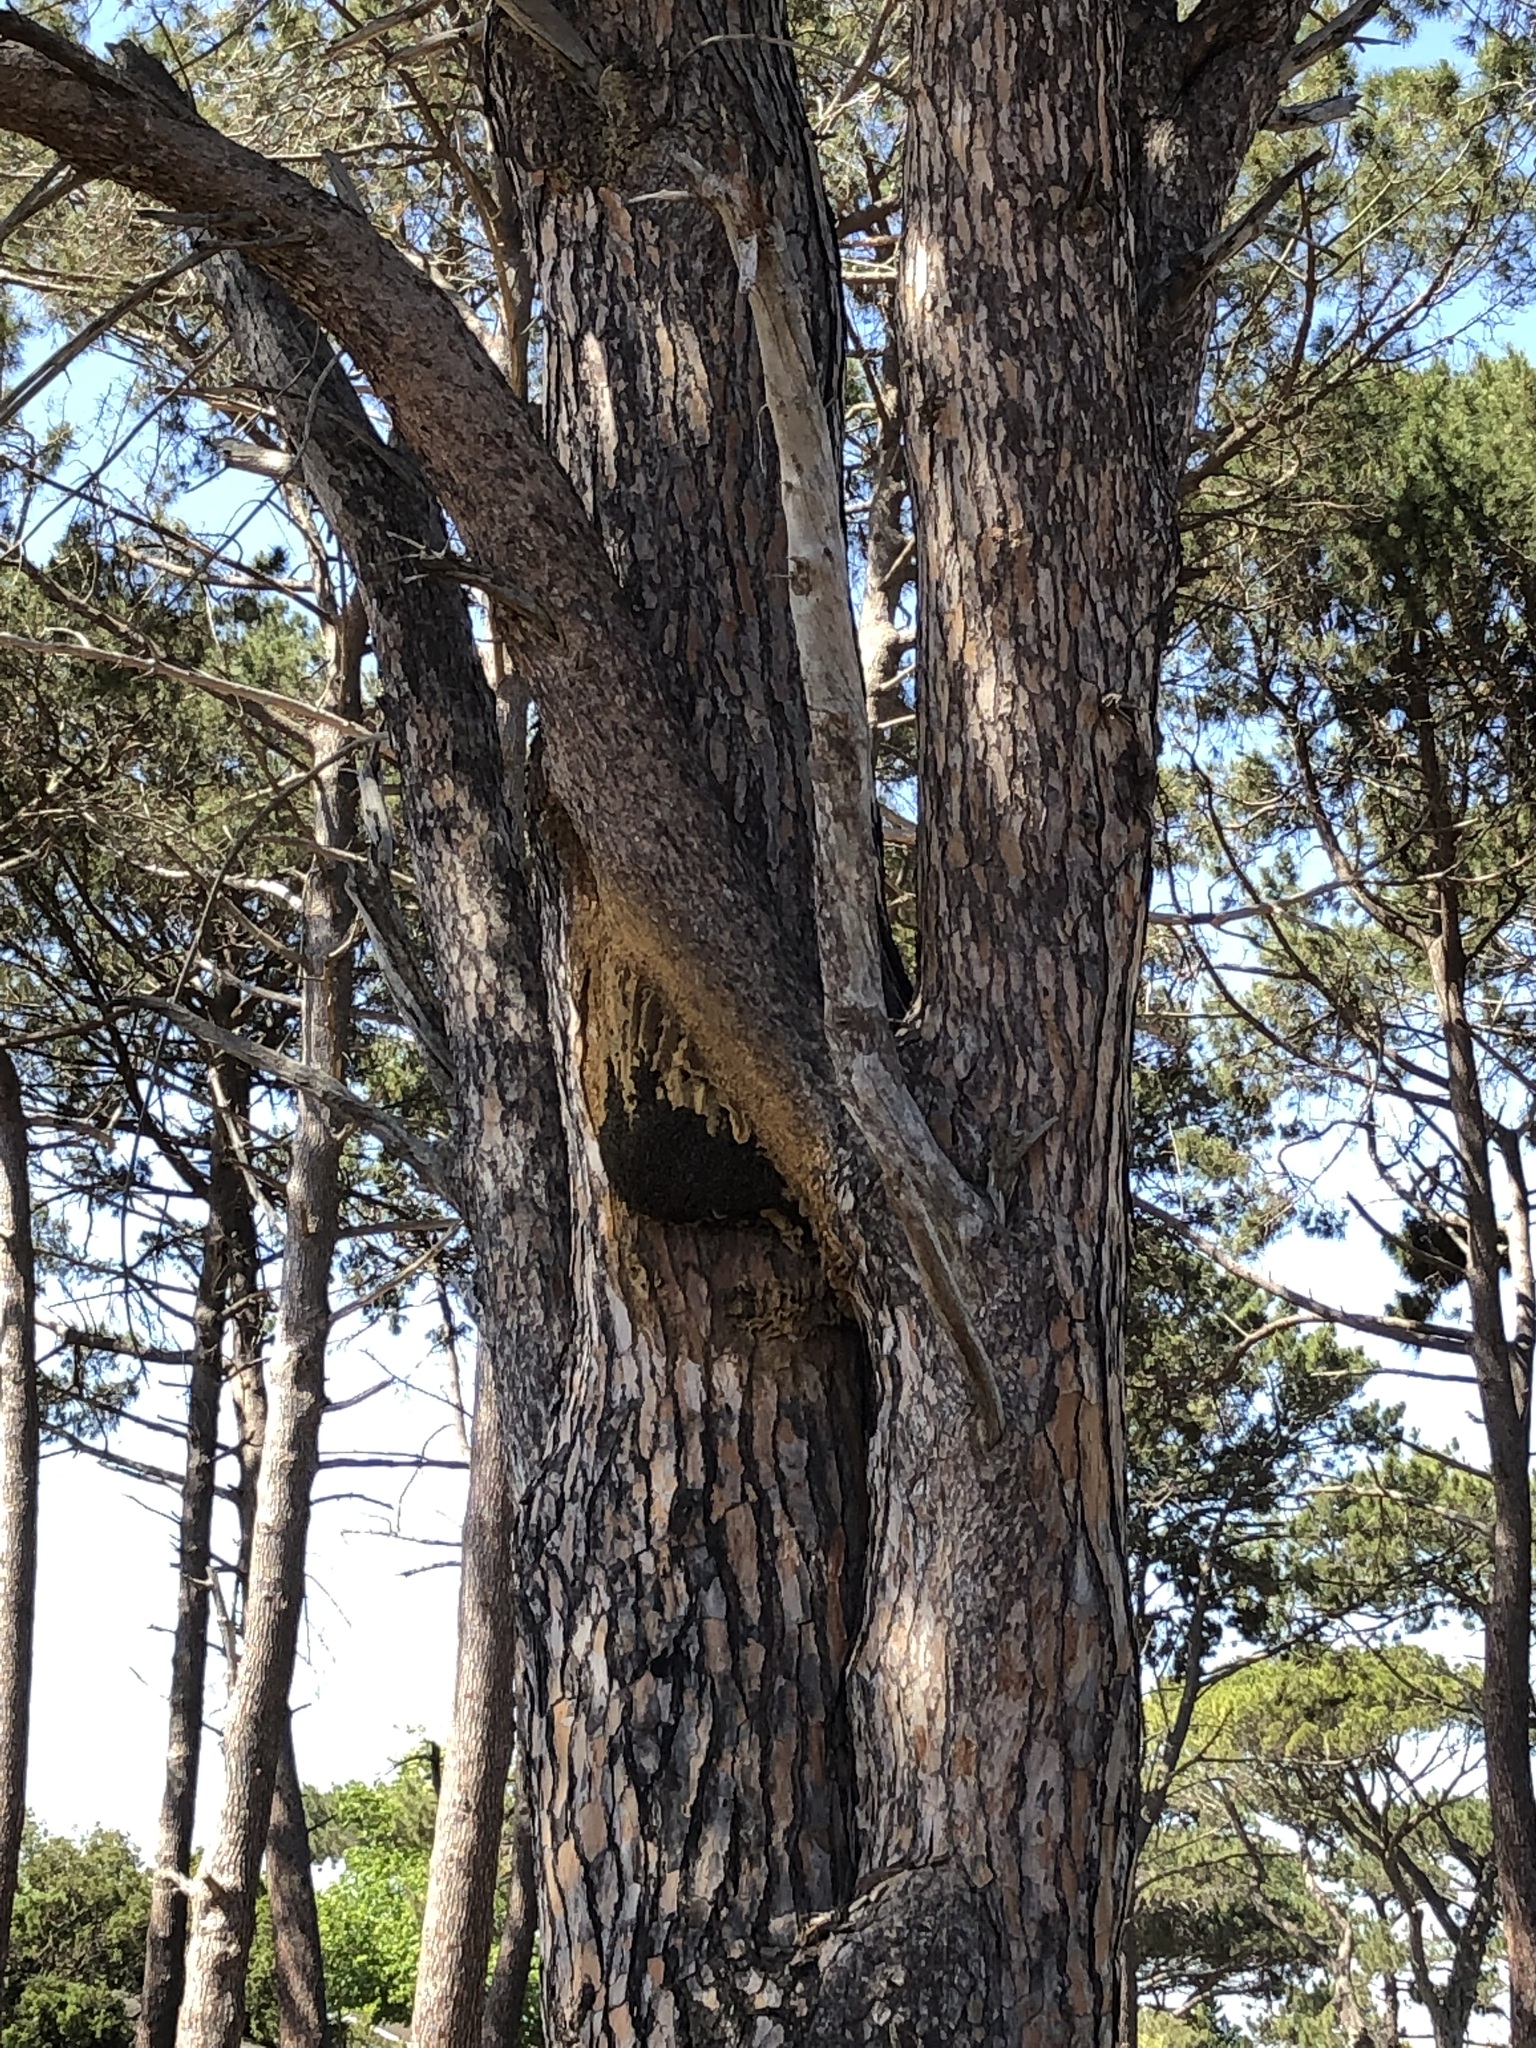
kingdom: Animalia
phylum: Arthropoda
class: Insecta
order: Hymenoptera
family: Apidae
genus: Apis
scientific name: Apis mellifera
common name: Honey bee
